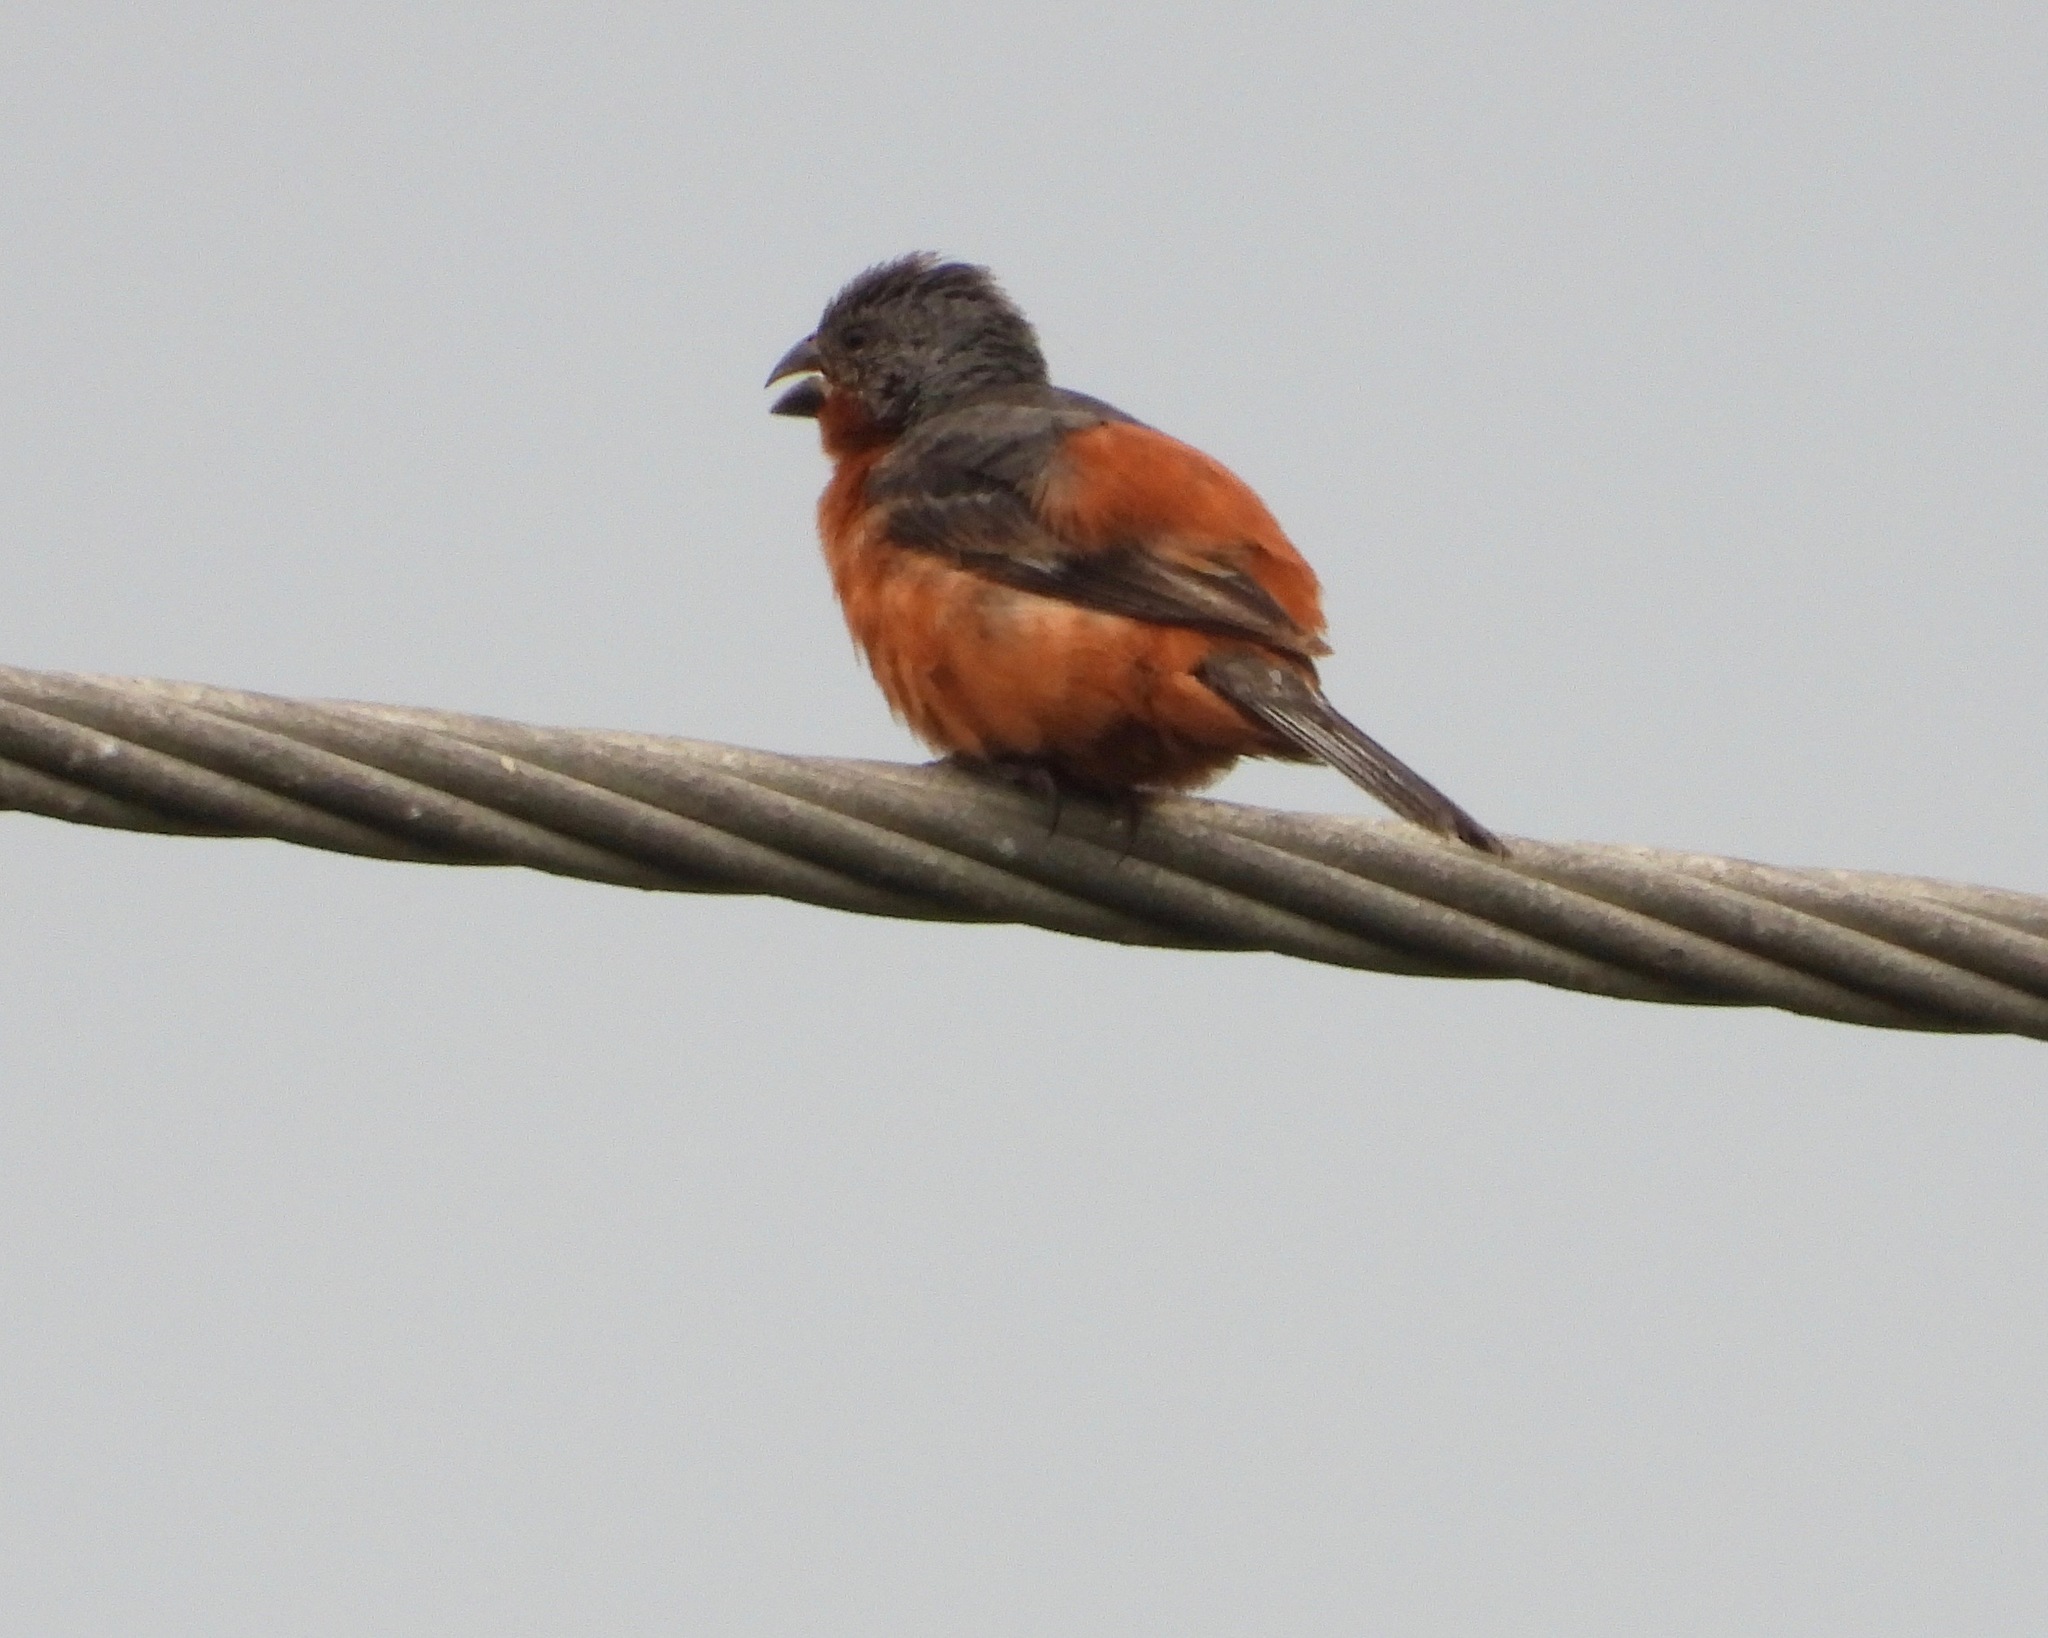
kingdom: Animalia
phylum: Chordata
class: Aves
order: Passeriformes
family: Thraupidae
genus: Sporophila
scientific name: Sporophila minuta
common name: Ruddy-breasted seedeater
